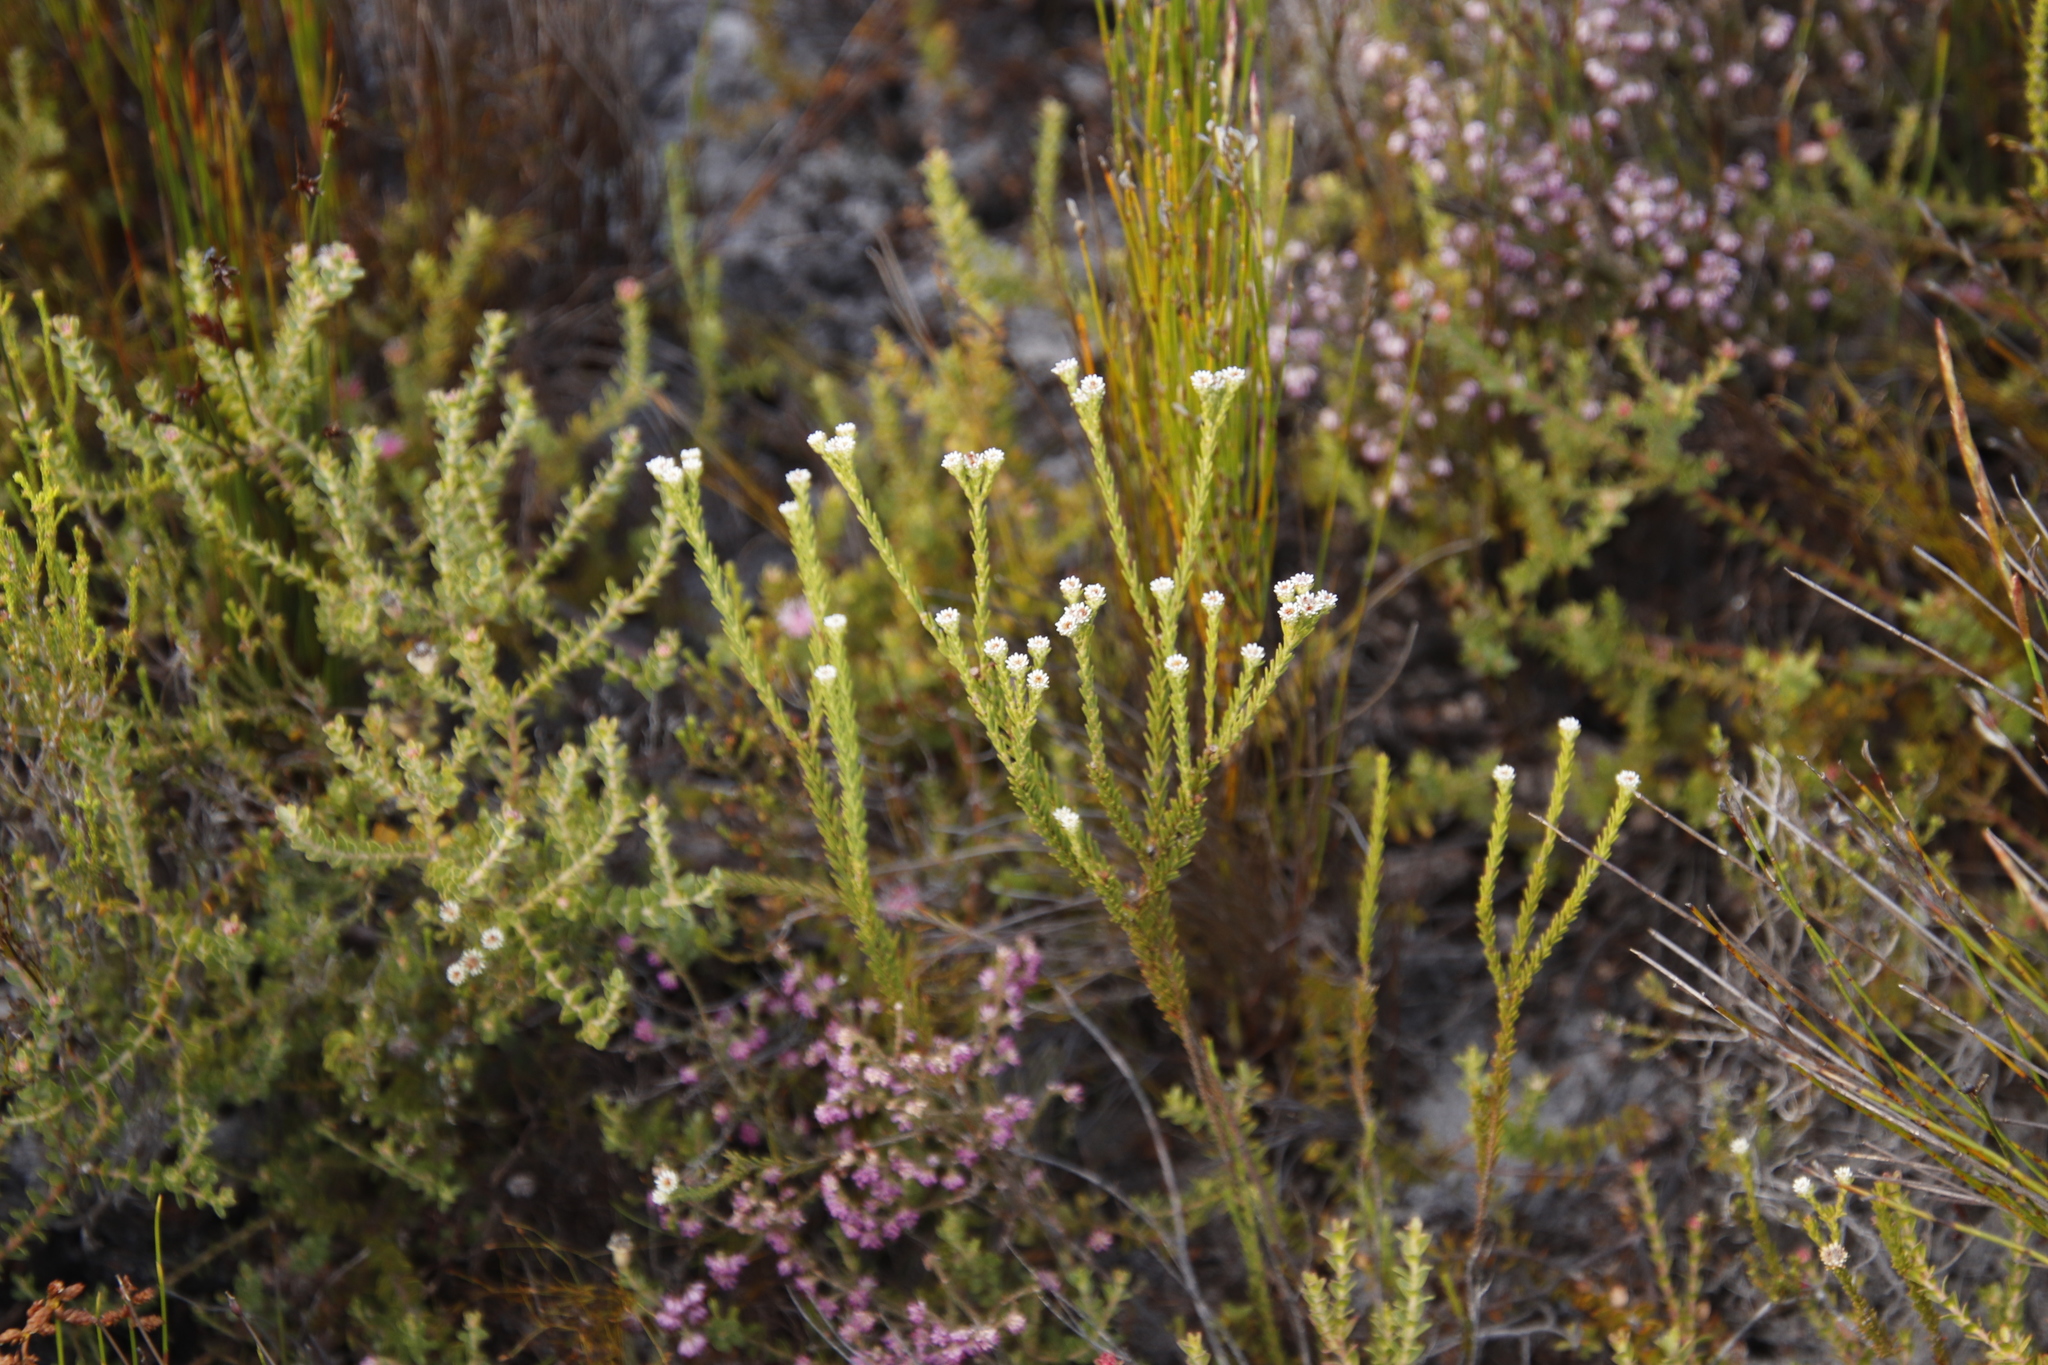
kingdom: Plantae
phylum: Tracheophyta
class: Magnoliopsida
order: Bruniales
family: Bruniaceae
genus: Staavia
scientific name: Staavia radiata
